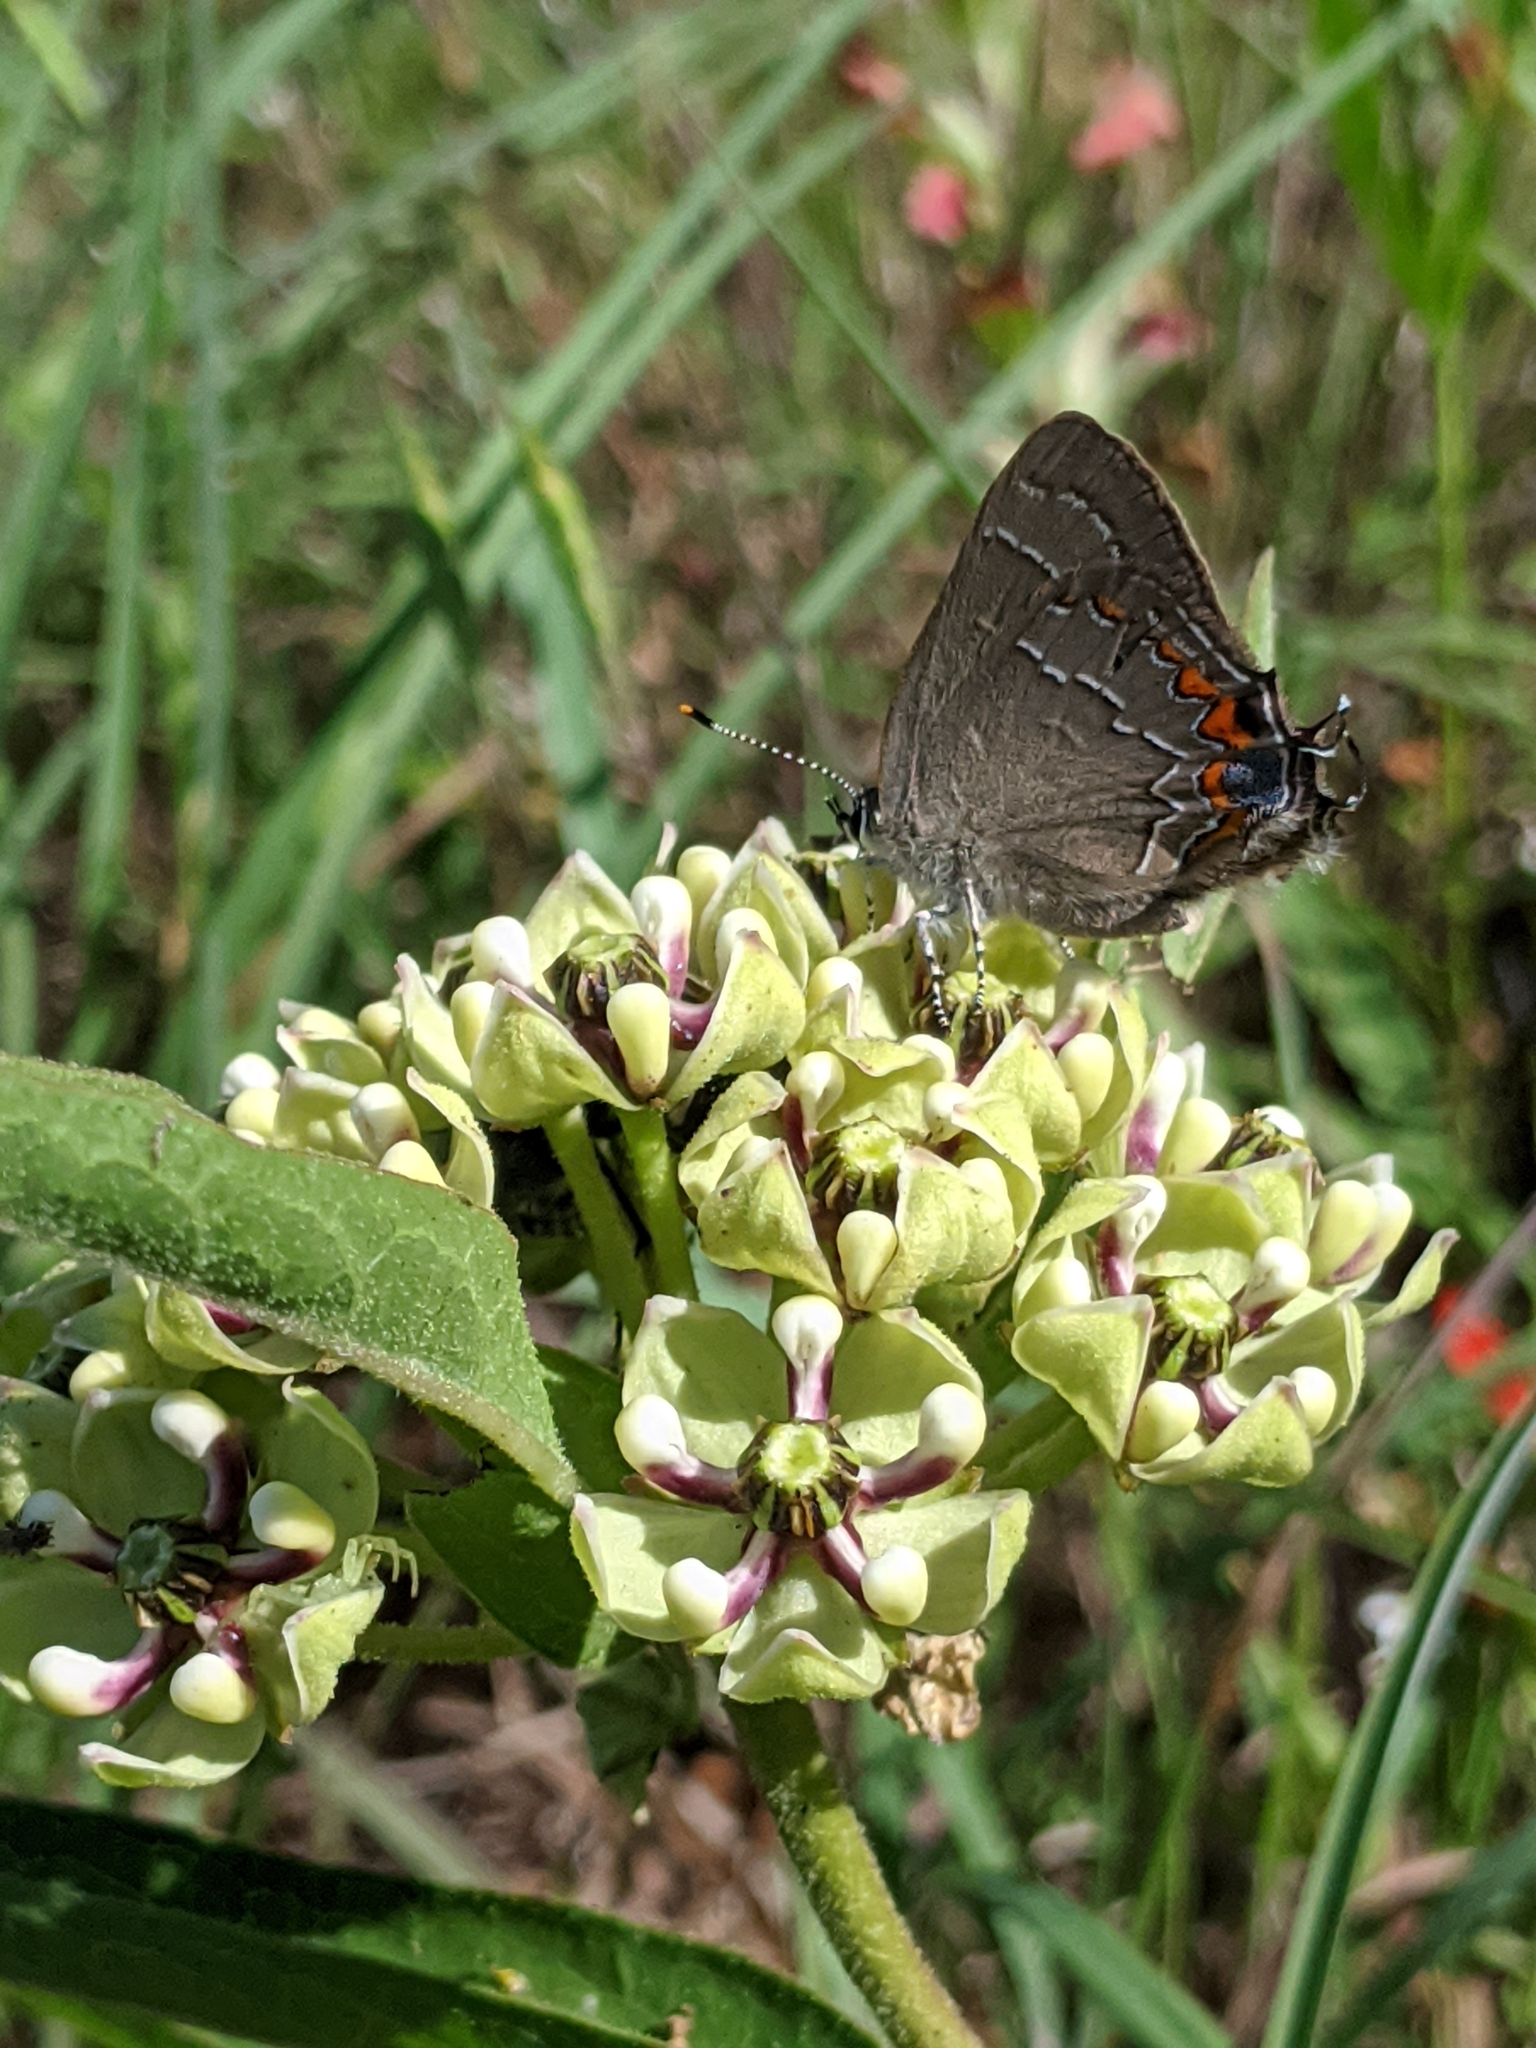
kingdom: Animalia
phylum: Arthropoda
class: Insecta
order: Lepidoptera
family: Lycaenidae
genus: Fixsenia
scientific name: Fixsenia favonius
